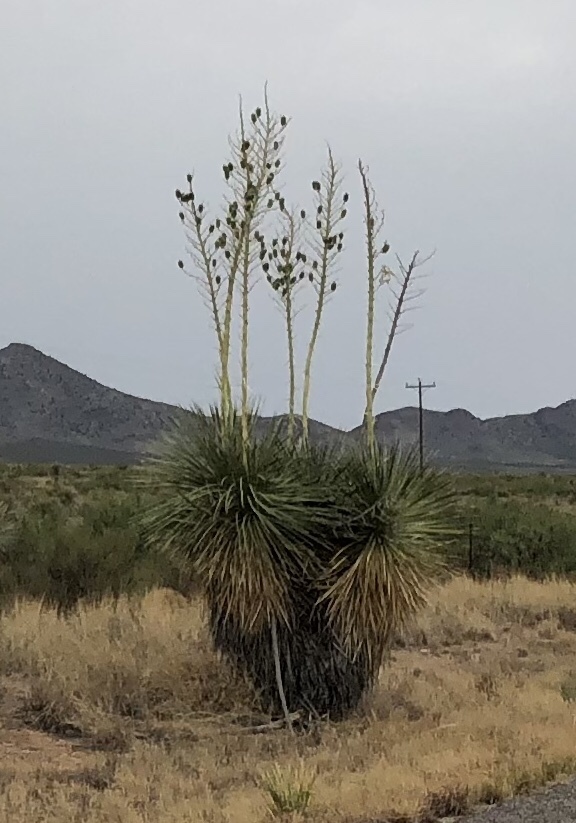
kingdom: Plantae
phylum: Tracheophyta
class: Liliopsida
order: Asparagales
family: Asparagaceae
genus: Yucca
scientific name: Yucca elata
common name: Palmella
